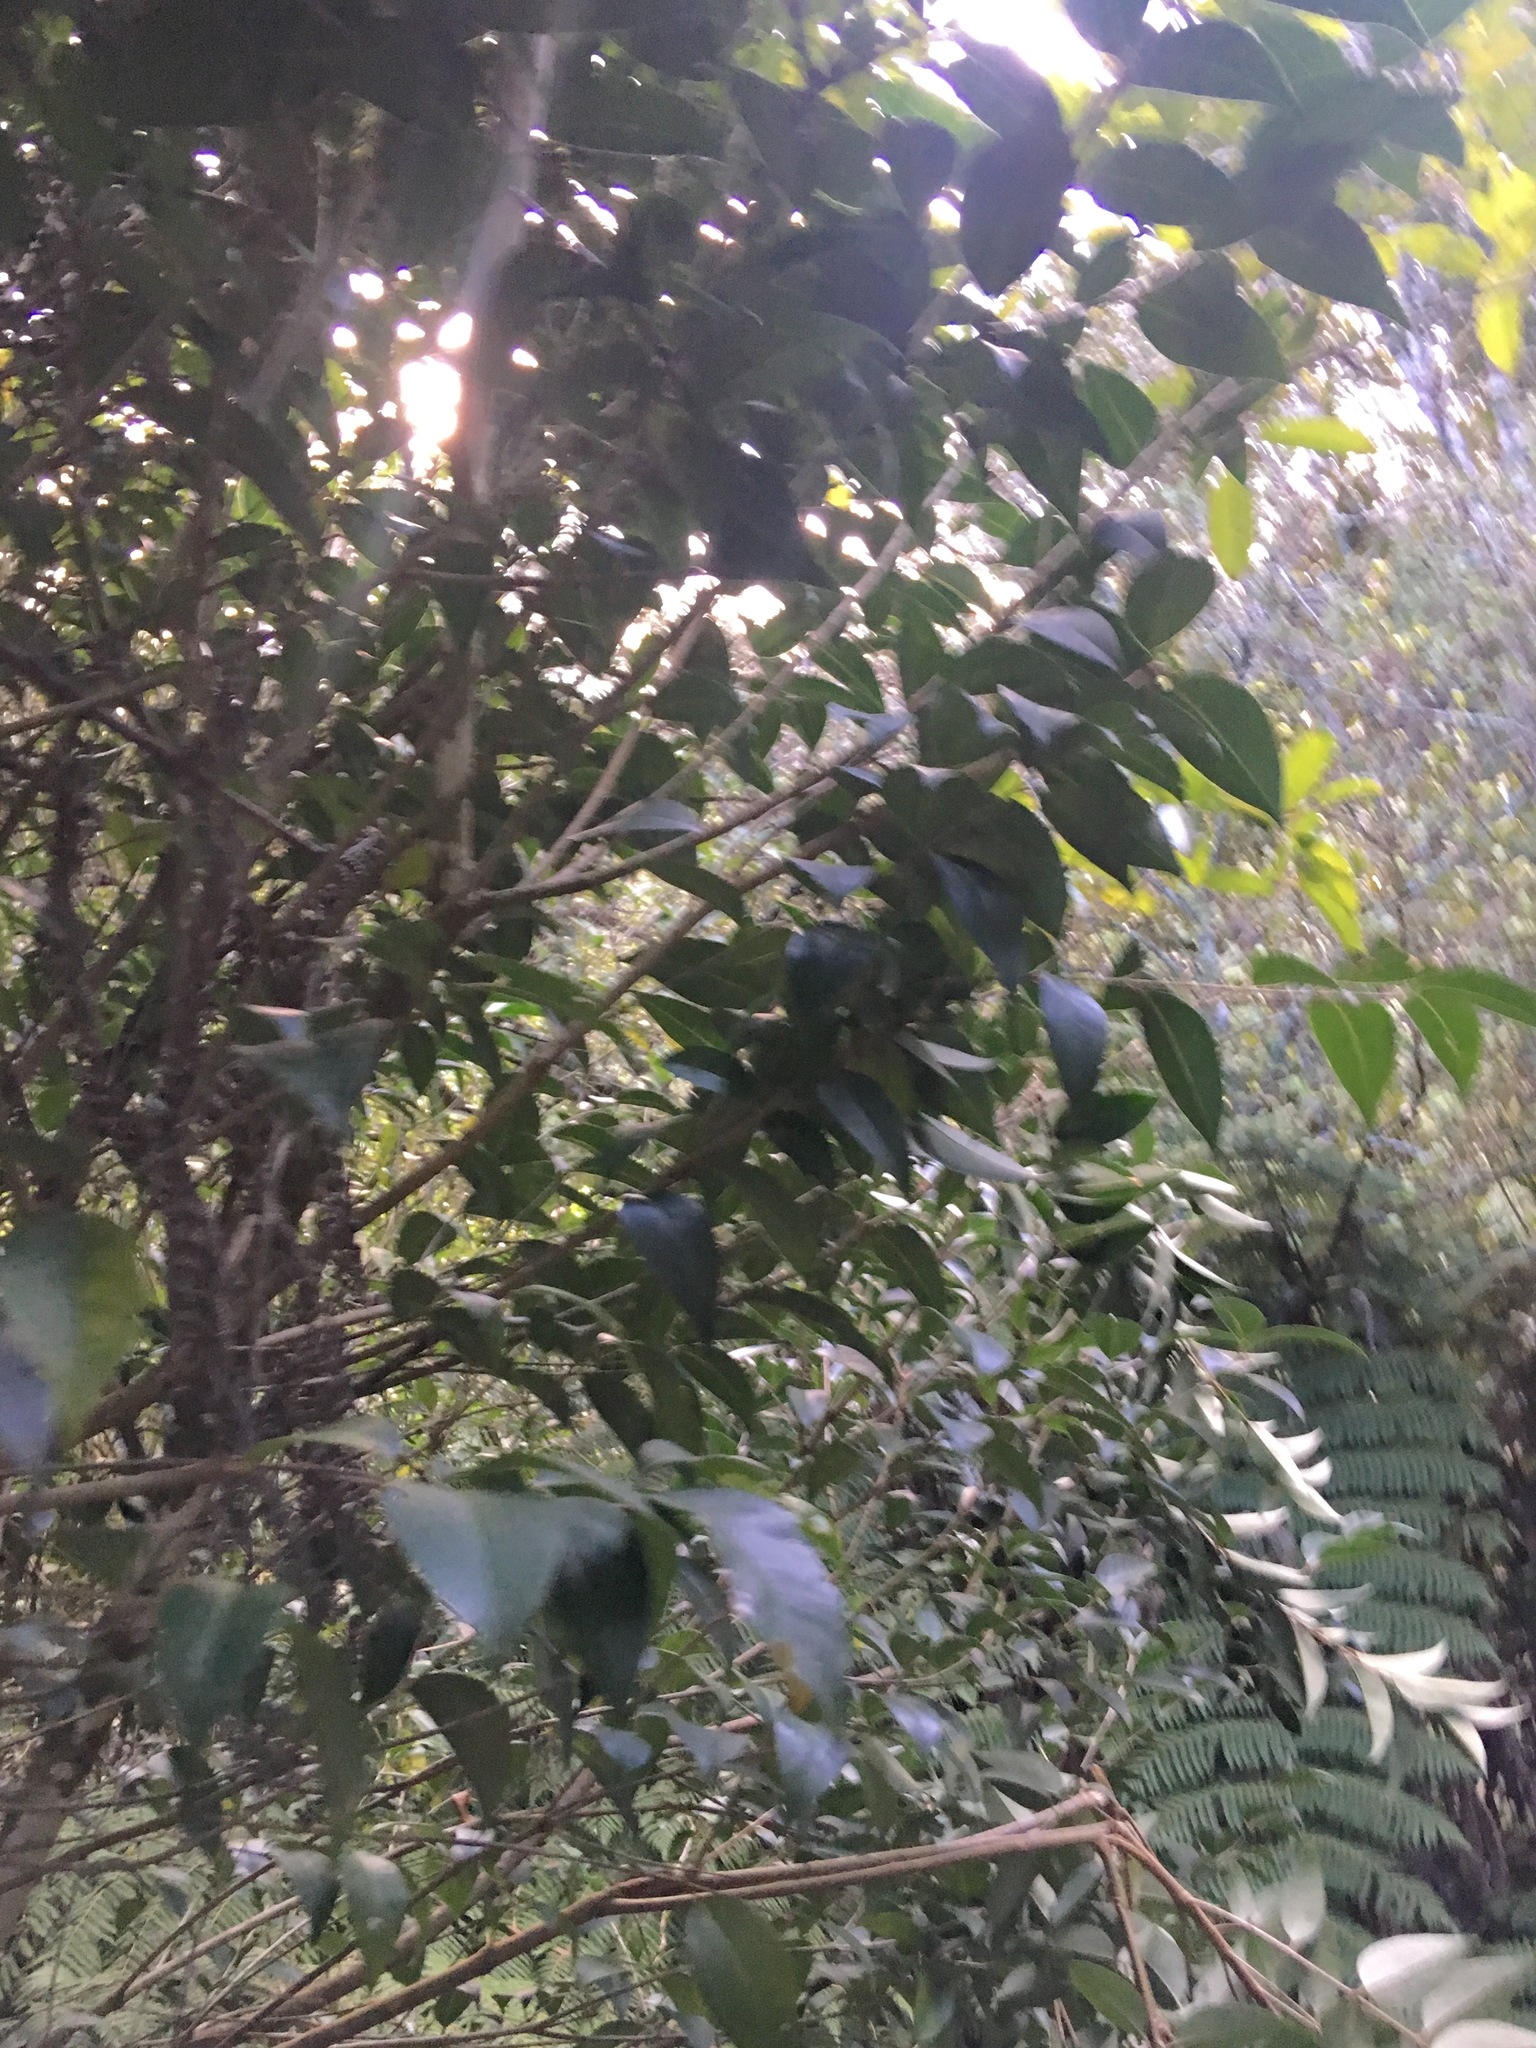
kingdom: Plantae
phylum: Tracheophyta
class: Magnoliopsida
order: Lamiales
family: Oleaceae
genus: Ligustrum
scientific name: Ligustrum lucidum
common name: Glossy privet
